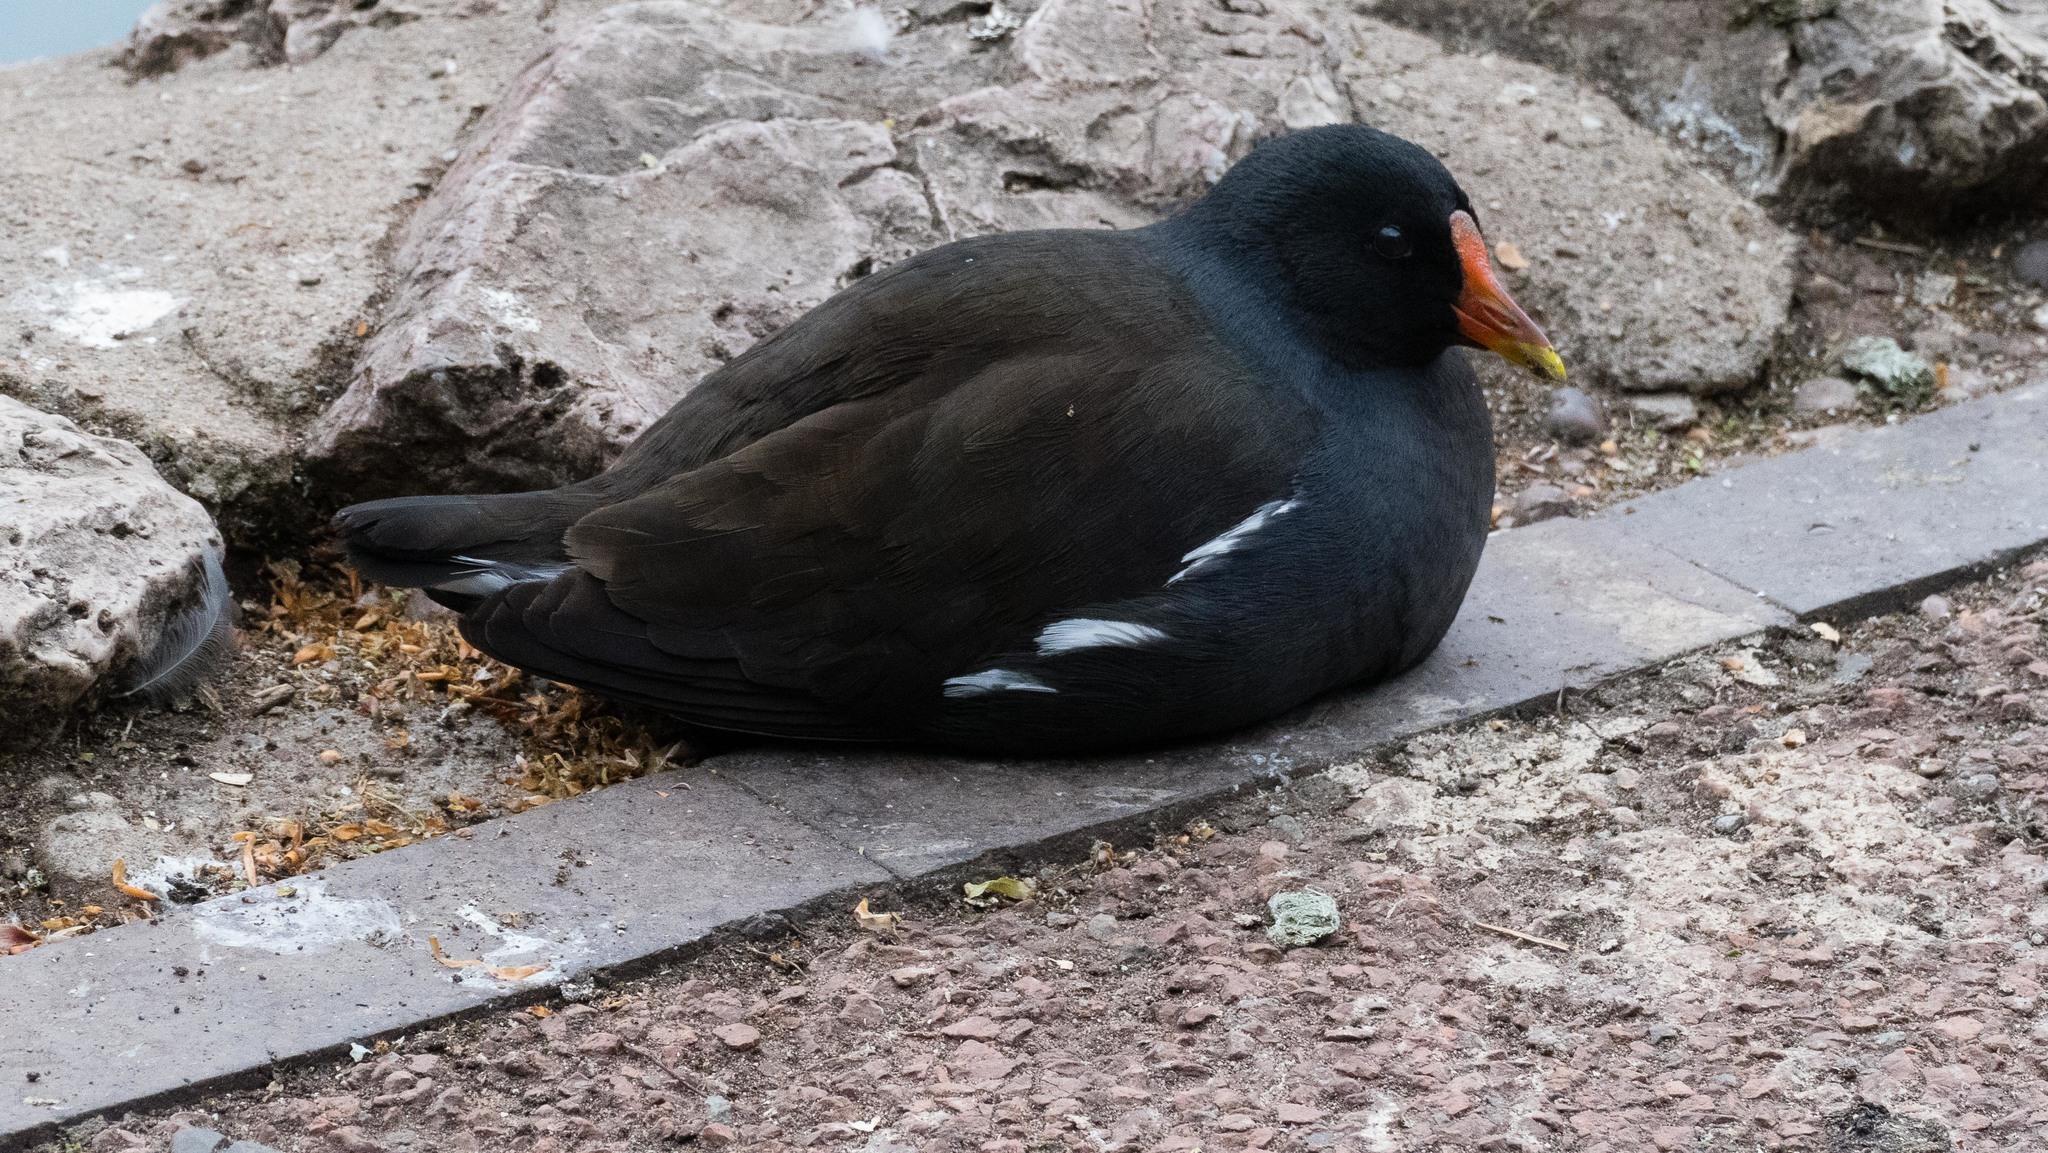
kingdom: Animalia
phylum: Chordata
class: Aves
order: Gruiformes
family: Rallidae
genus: Gallinula
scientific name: Gallinula chloropus
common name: Common moorhen
